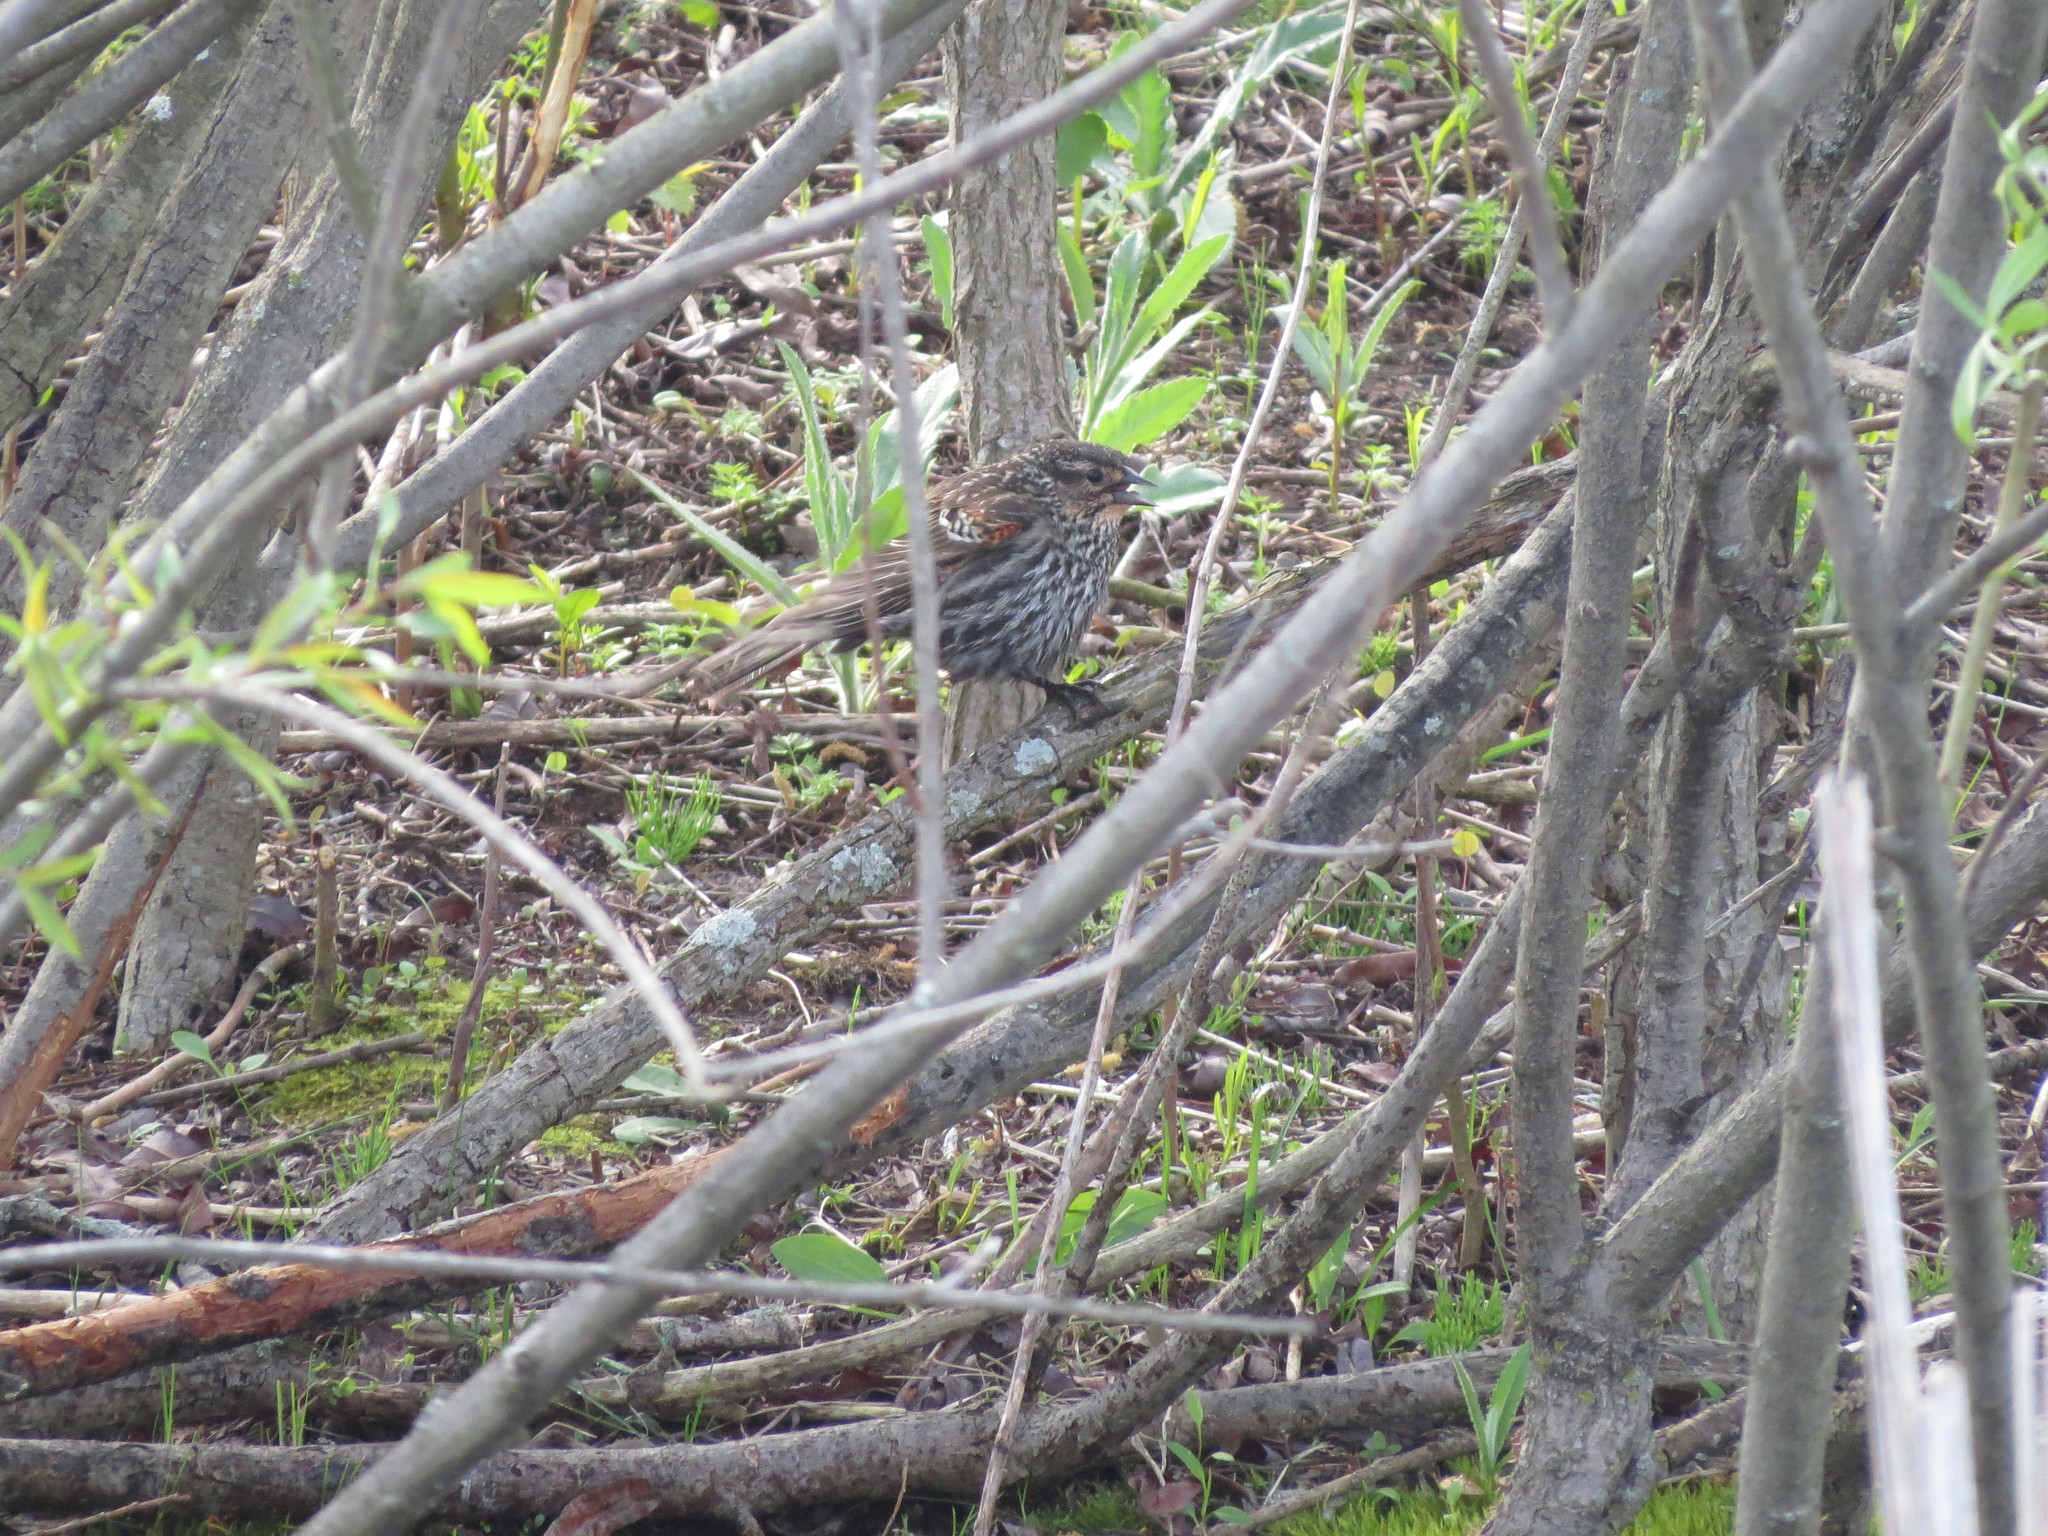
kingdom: Animalia
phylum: Chordata
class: Aves
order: Passeriformes
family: Icteridae
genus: Agelaius
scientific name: Agelaius phoeniceus
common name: Red-winged blackbird
